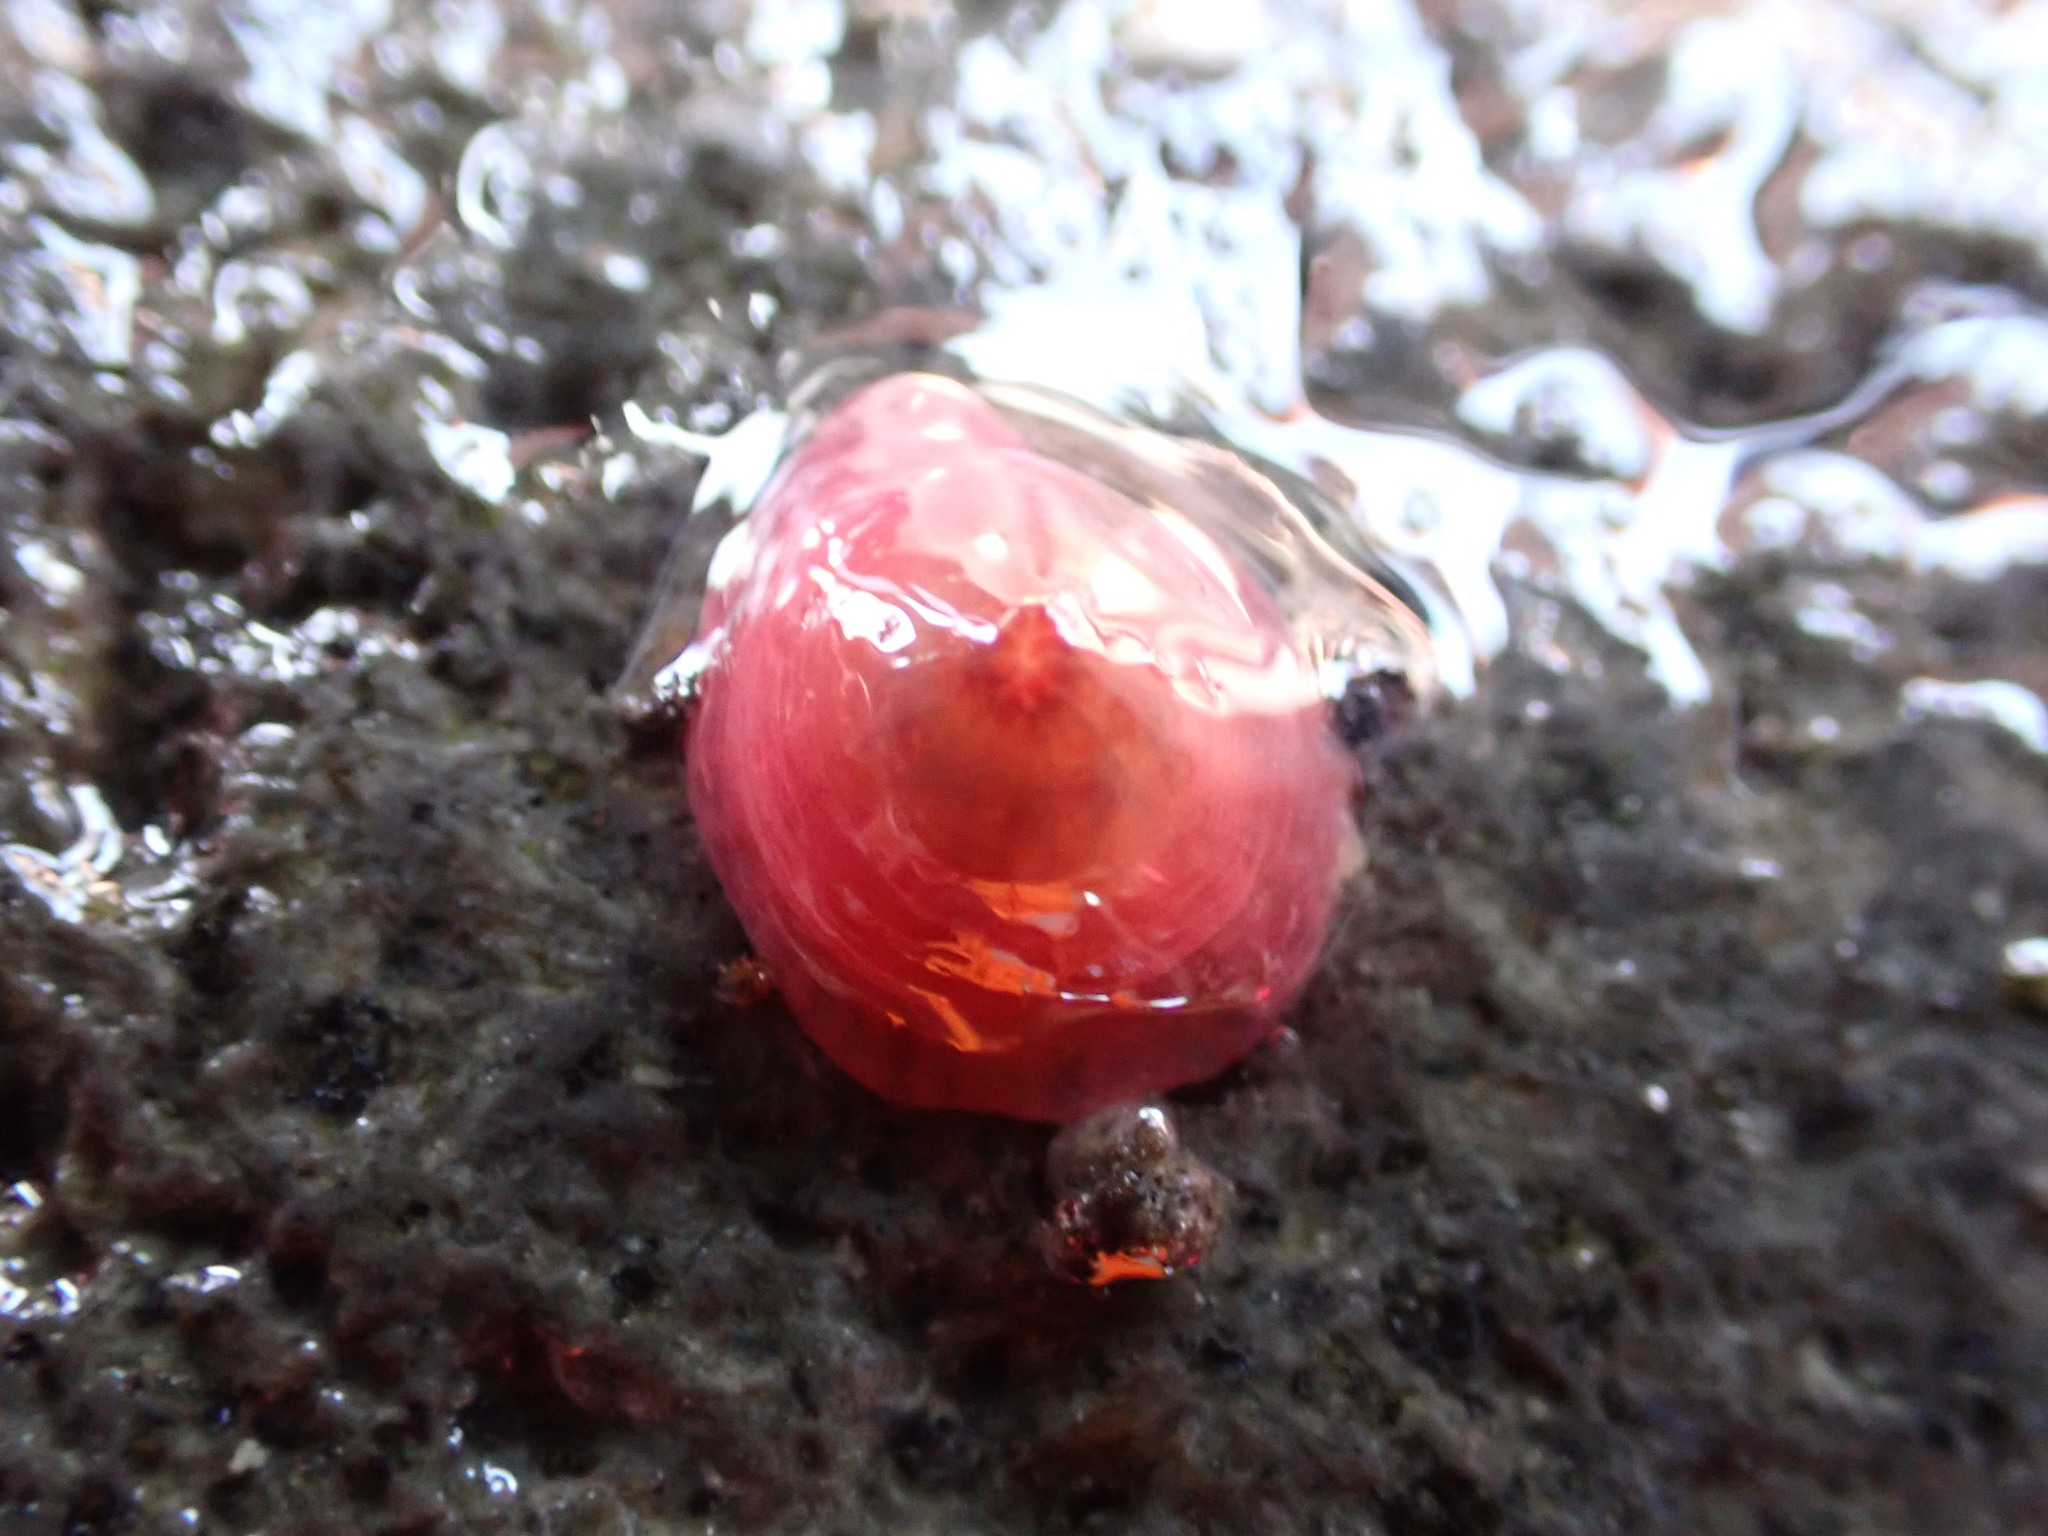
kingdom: Animalia
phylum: Cnidaria
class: Anthozoa
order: Actiniaria
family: Actiniidae
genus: Actinia
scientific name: Actinia tenebrosa
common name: Waratah anemone
